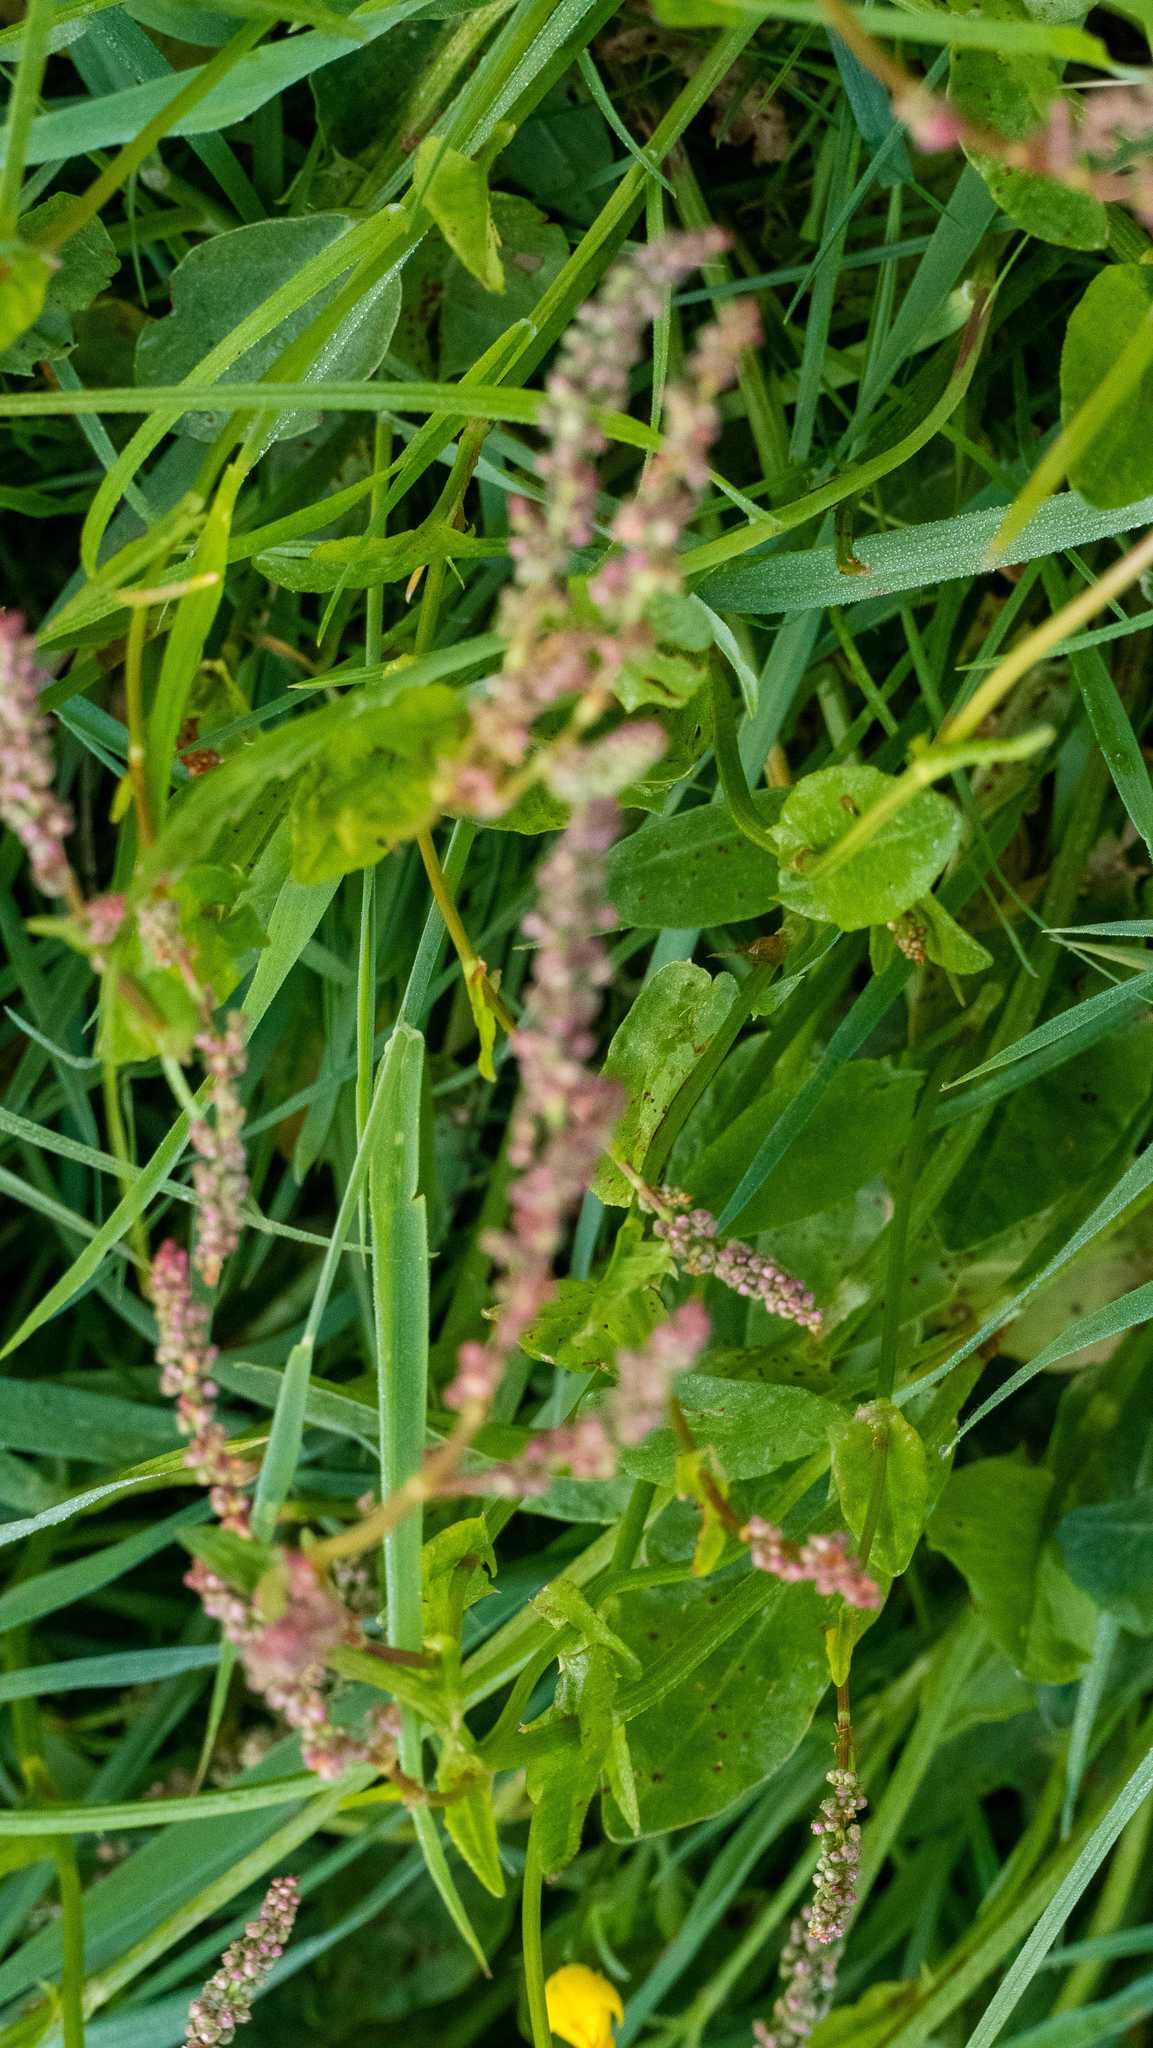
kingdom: Plantae
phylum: Tracheophyta
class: Magnoliopsida
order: Caryophyllales
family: Polygonaceae
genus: Rumex
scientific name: Rumex acetosa
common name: Garden sorrel
